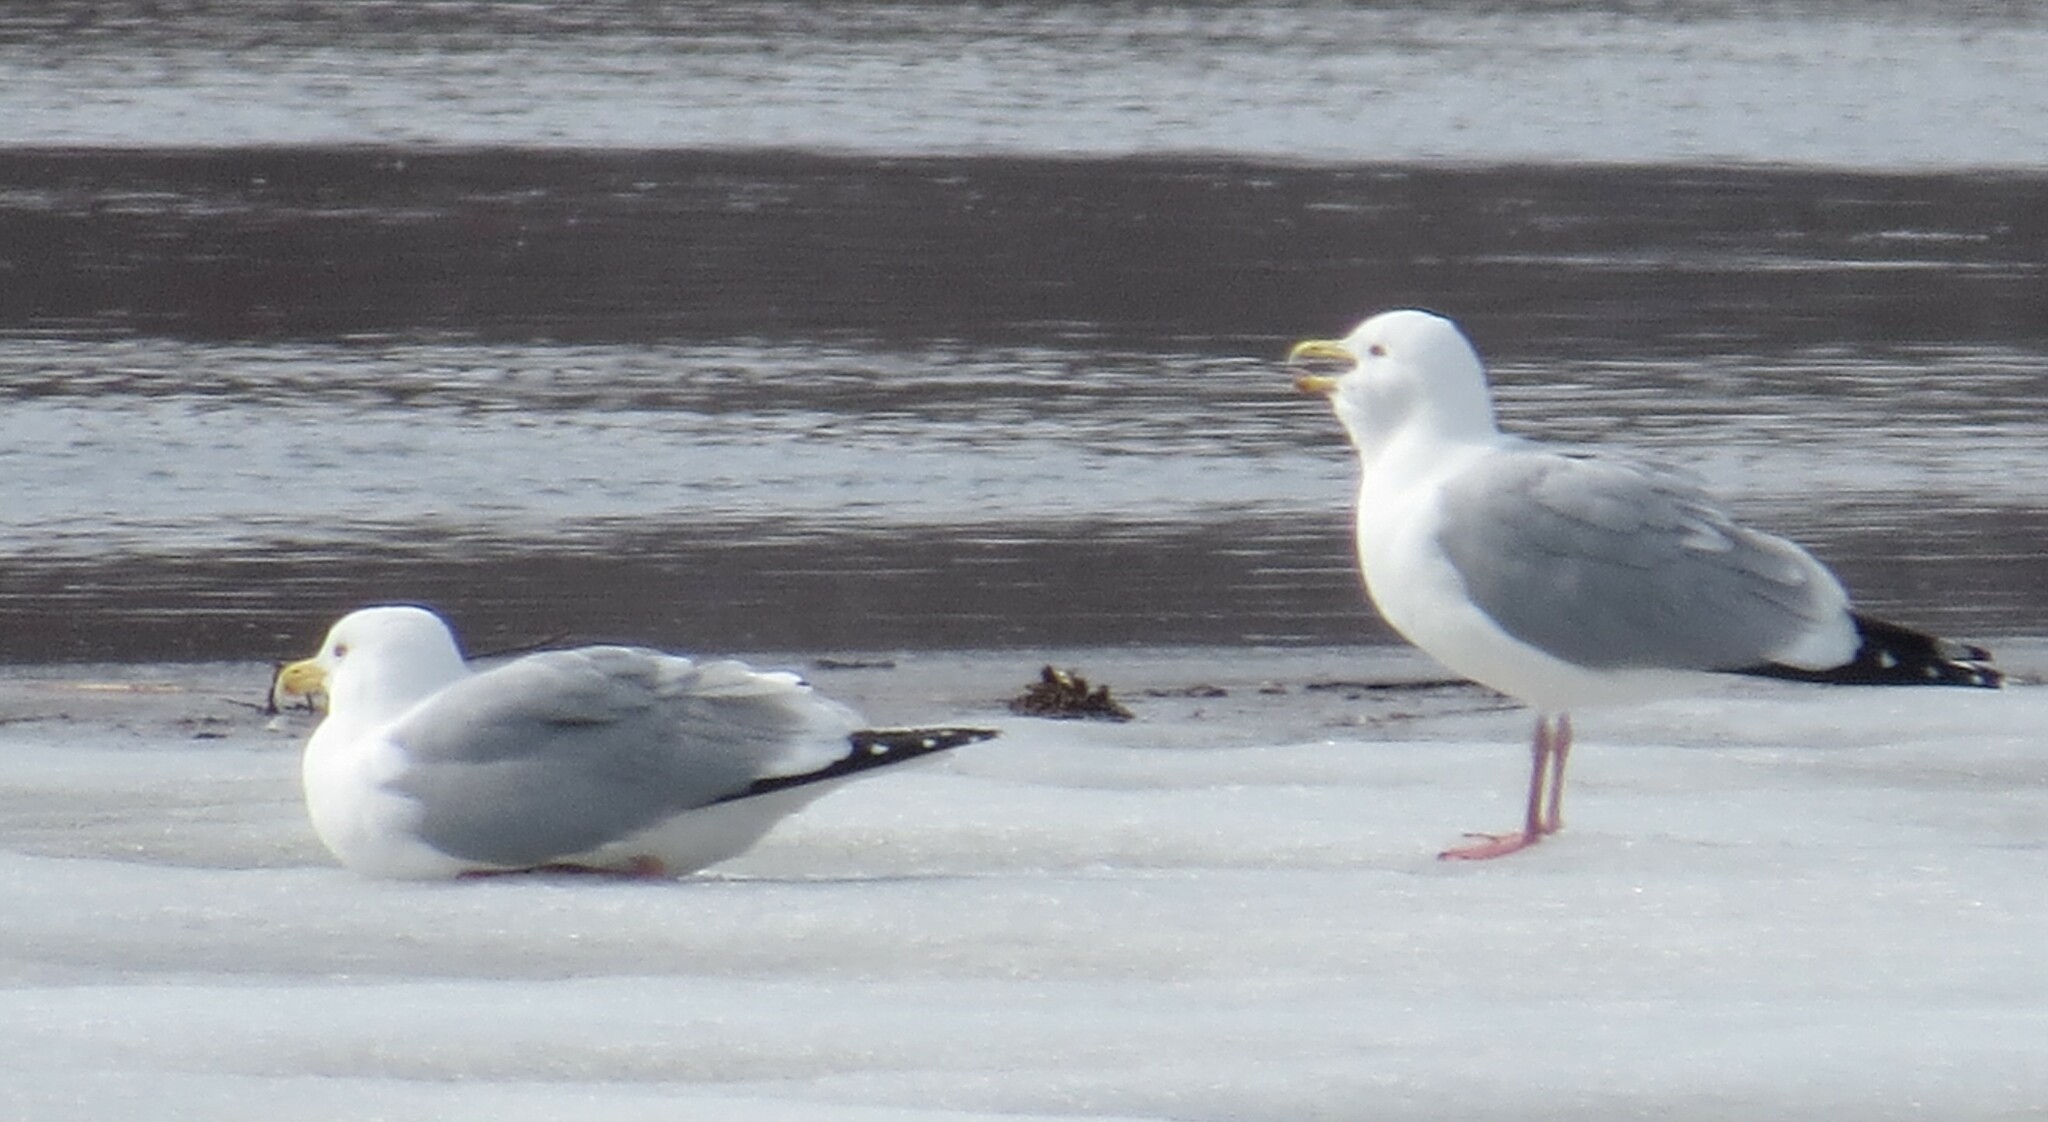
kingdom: Animalia
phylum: Chordata
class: Aves
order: Charadriiformes
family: Laridae
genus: Larus
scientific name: Larus argentatus
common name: Herring gull
